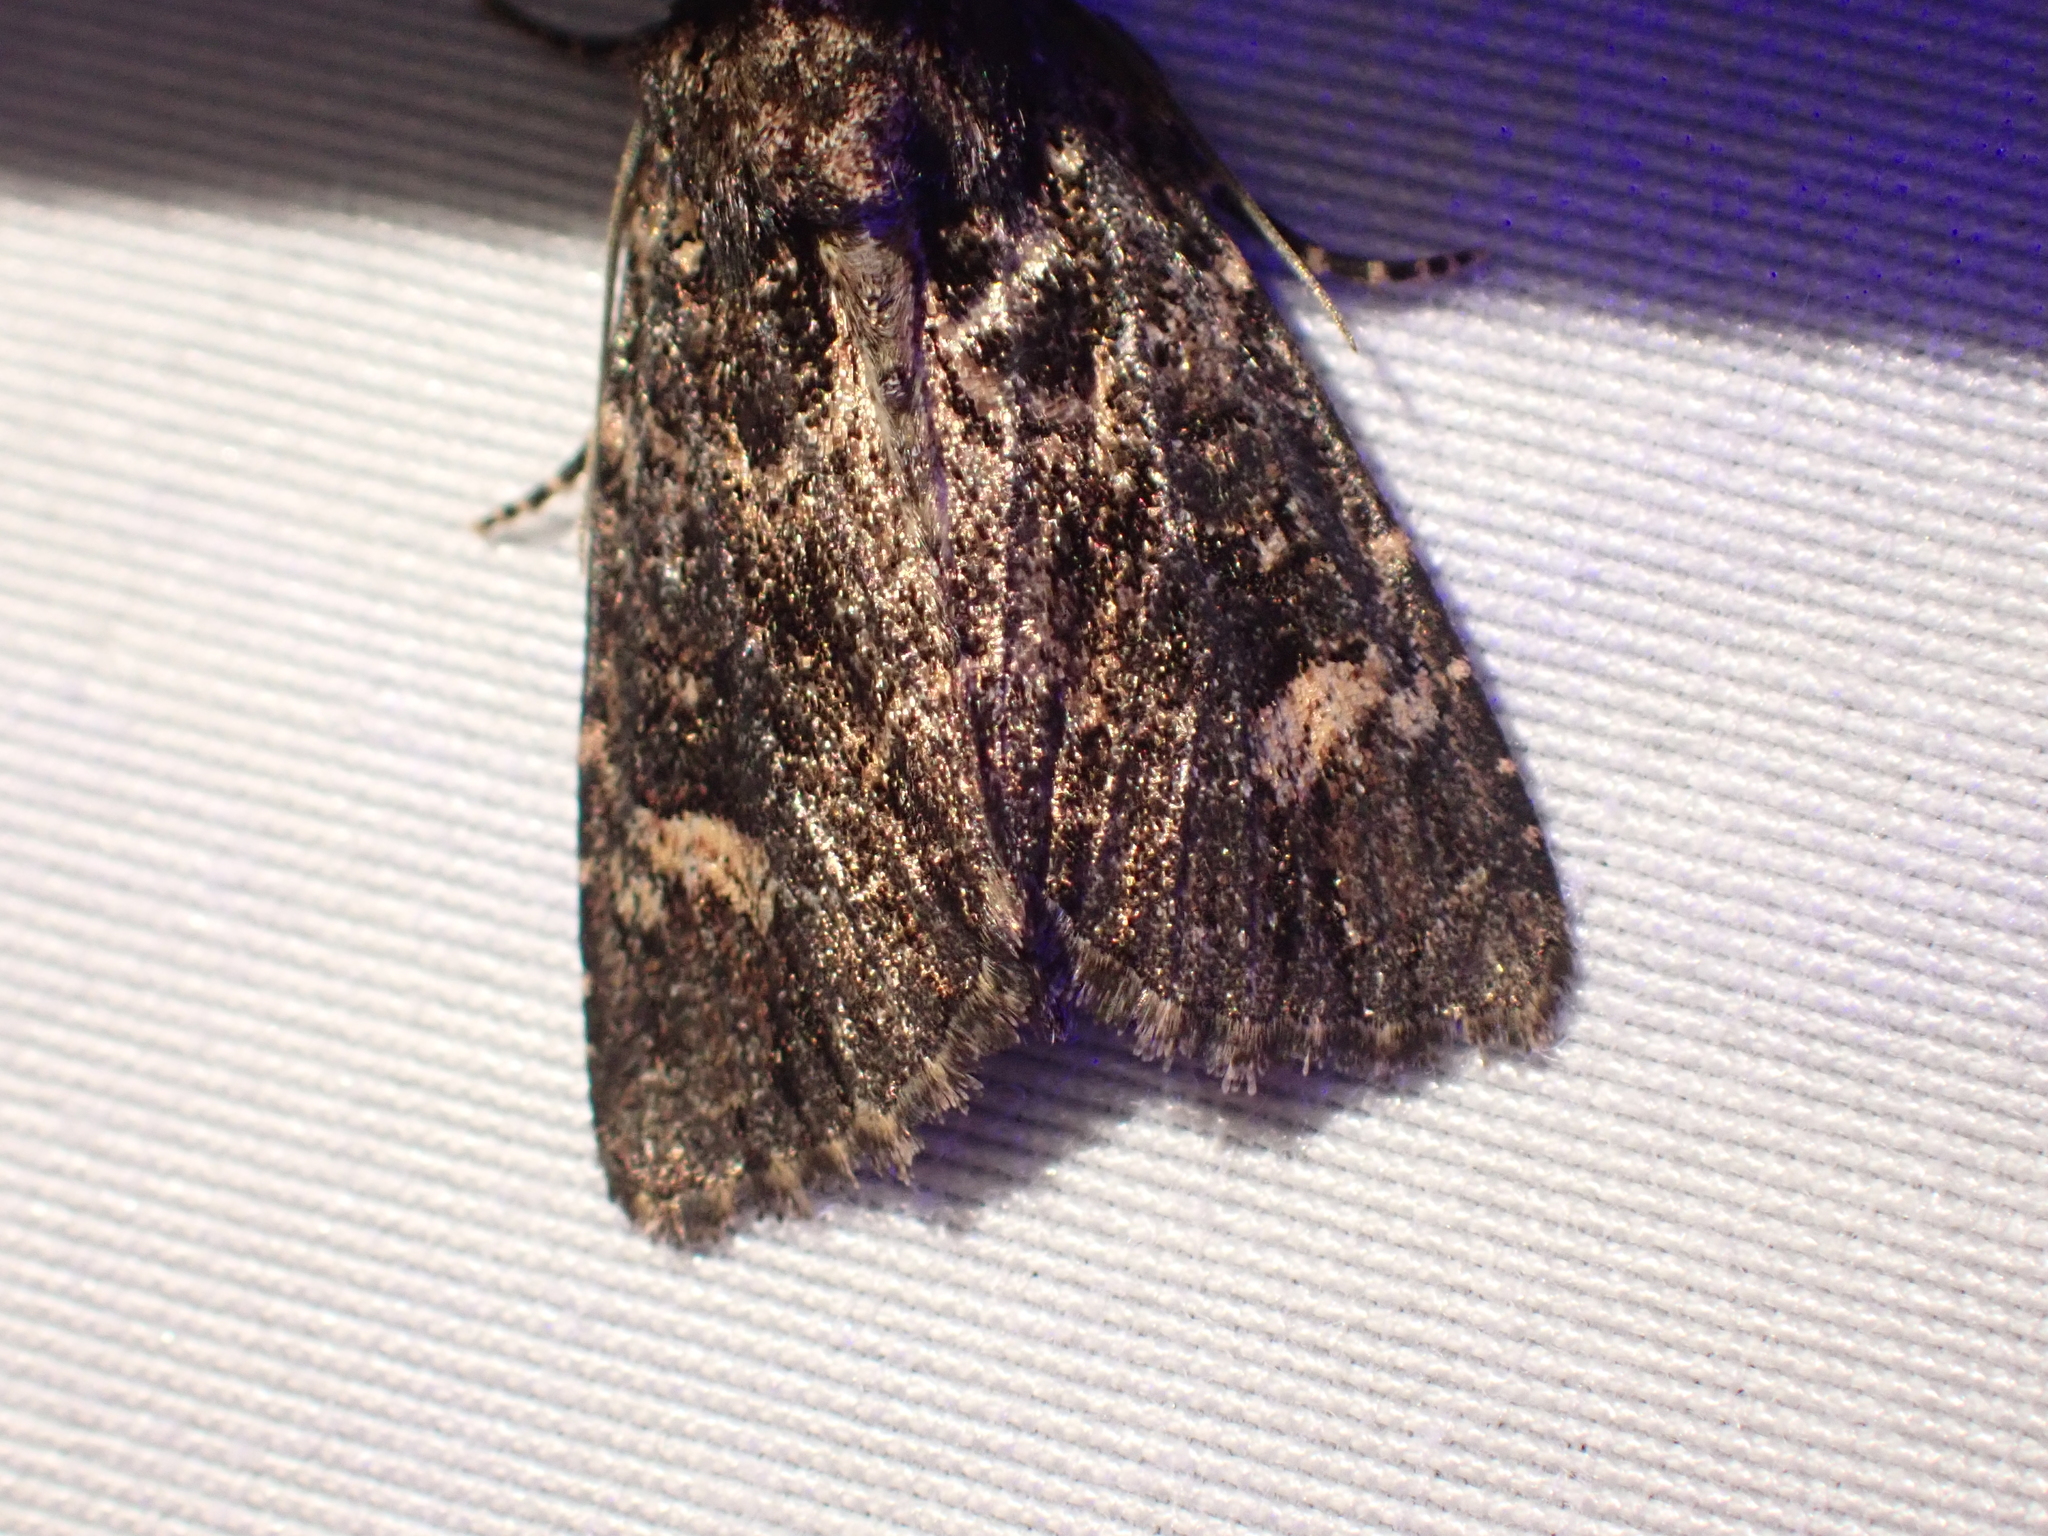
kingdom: Animalia
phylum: Arthropoda
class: Insecta
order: Lepidoptera
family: Noctuidae
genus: Aseptis
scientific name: Aseptis binotata
